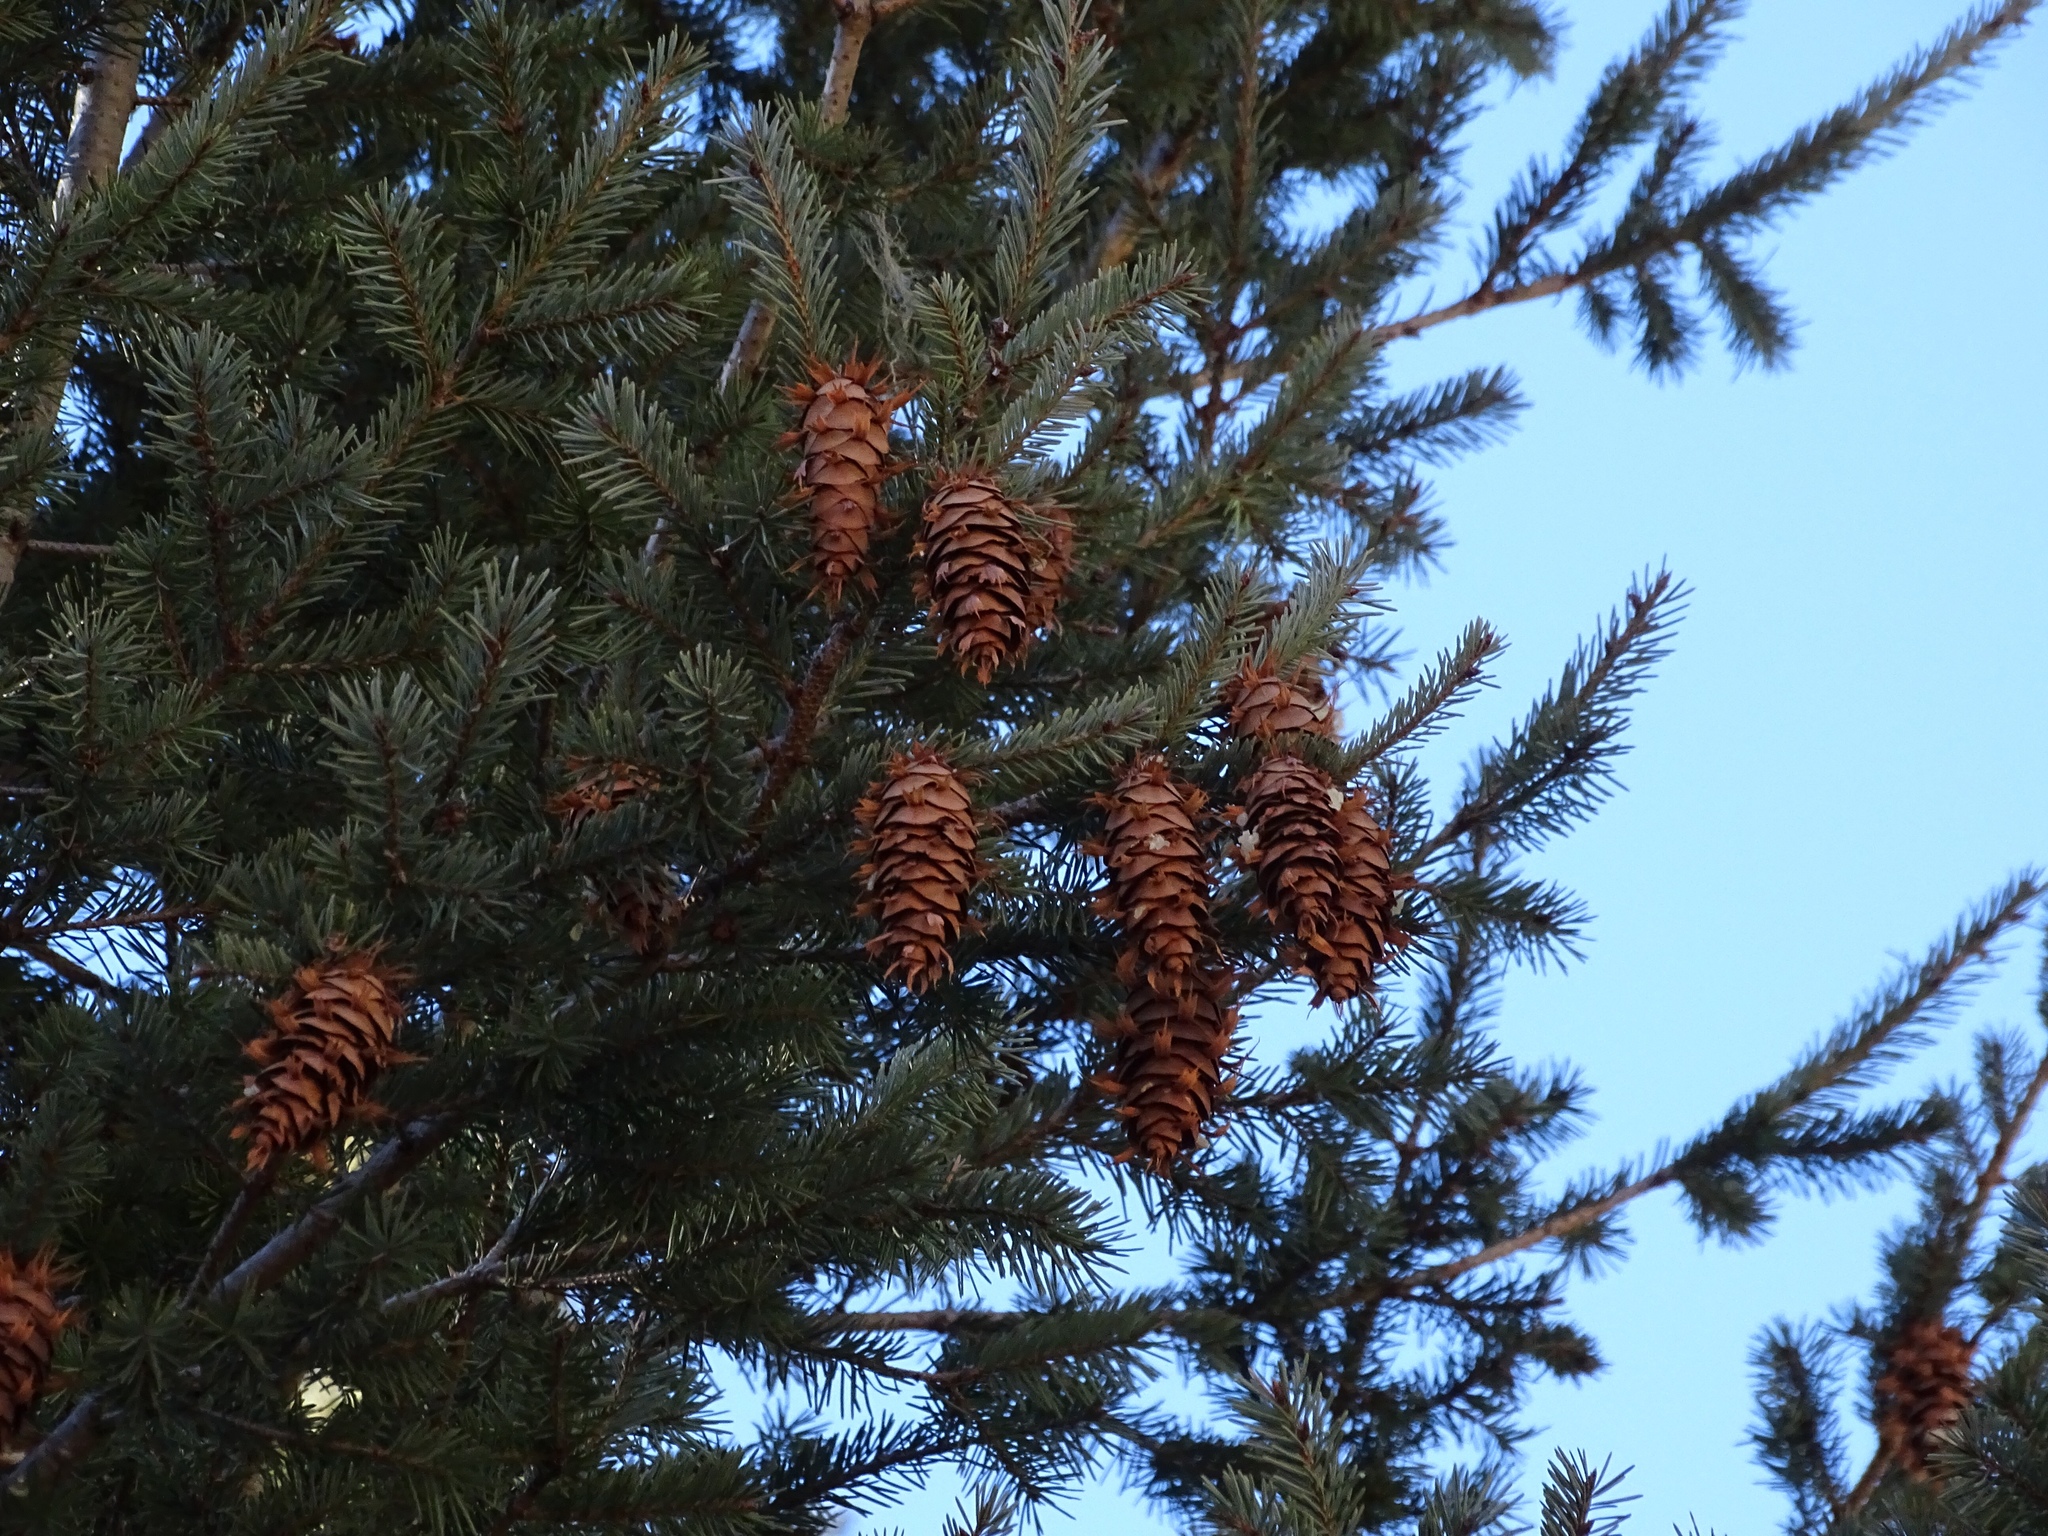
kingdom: Plantae
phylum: Tracheophyta
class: Pinopsida
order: Pinales
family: Pinaceae
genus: Pseudotsuga
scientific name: Pseudotsuga menziesii
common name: Douglas fir
